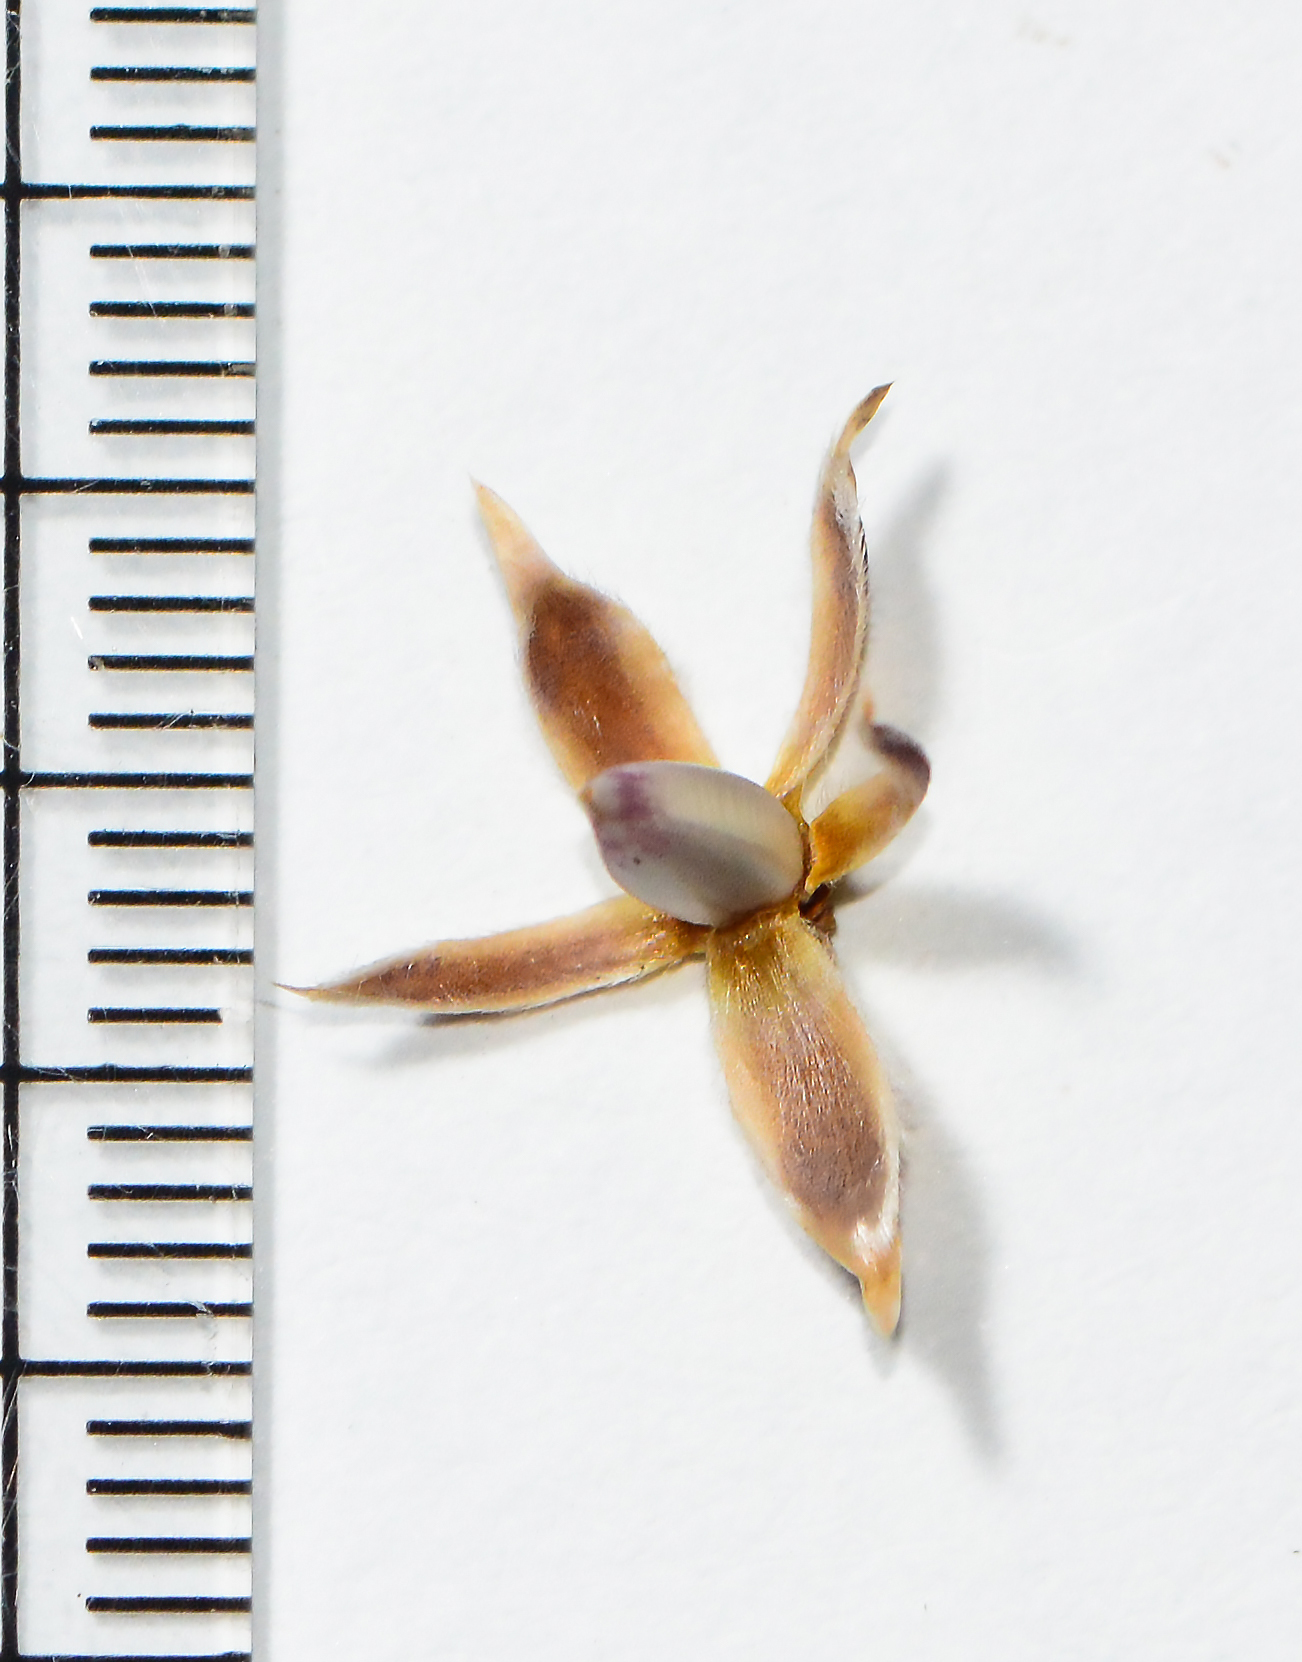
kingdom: Plantae
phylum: Tracheophyta
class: Magnoliopsida
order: Lamiales
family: Acanthaceae
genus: Lepidagathis
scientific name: Lepidagathis trinervis
